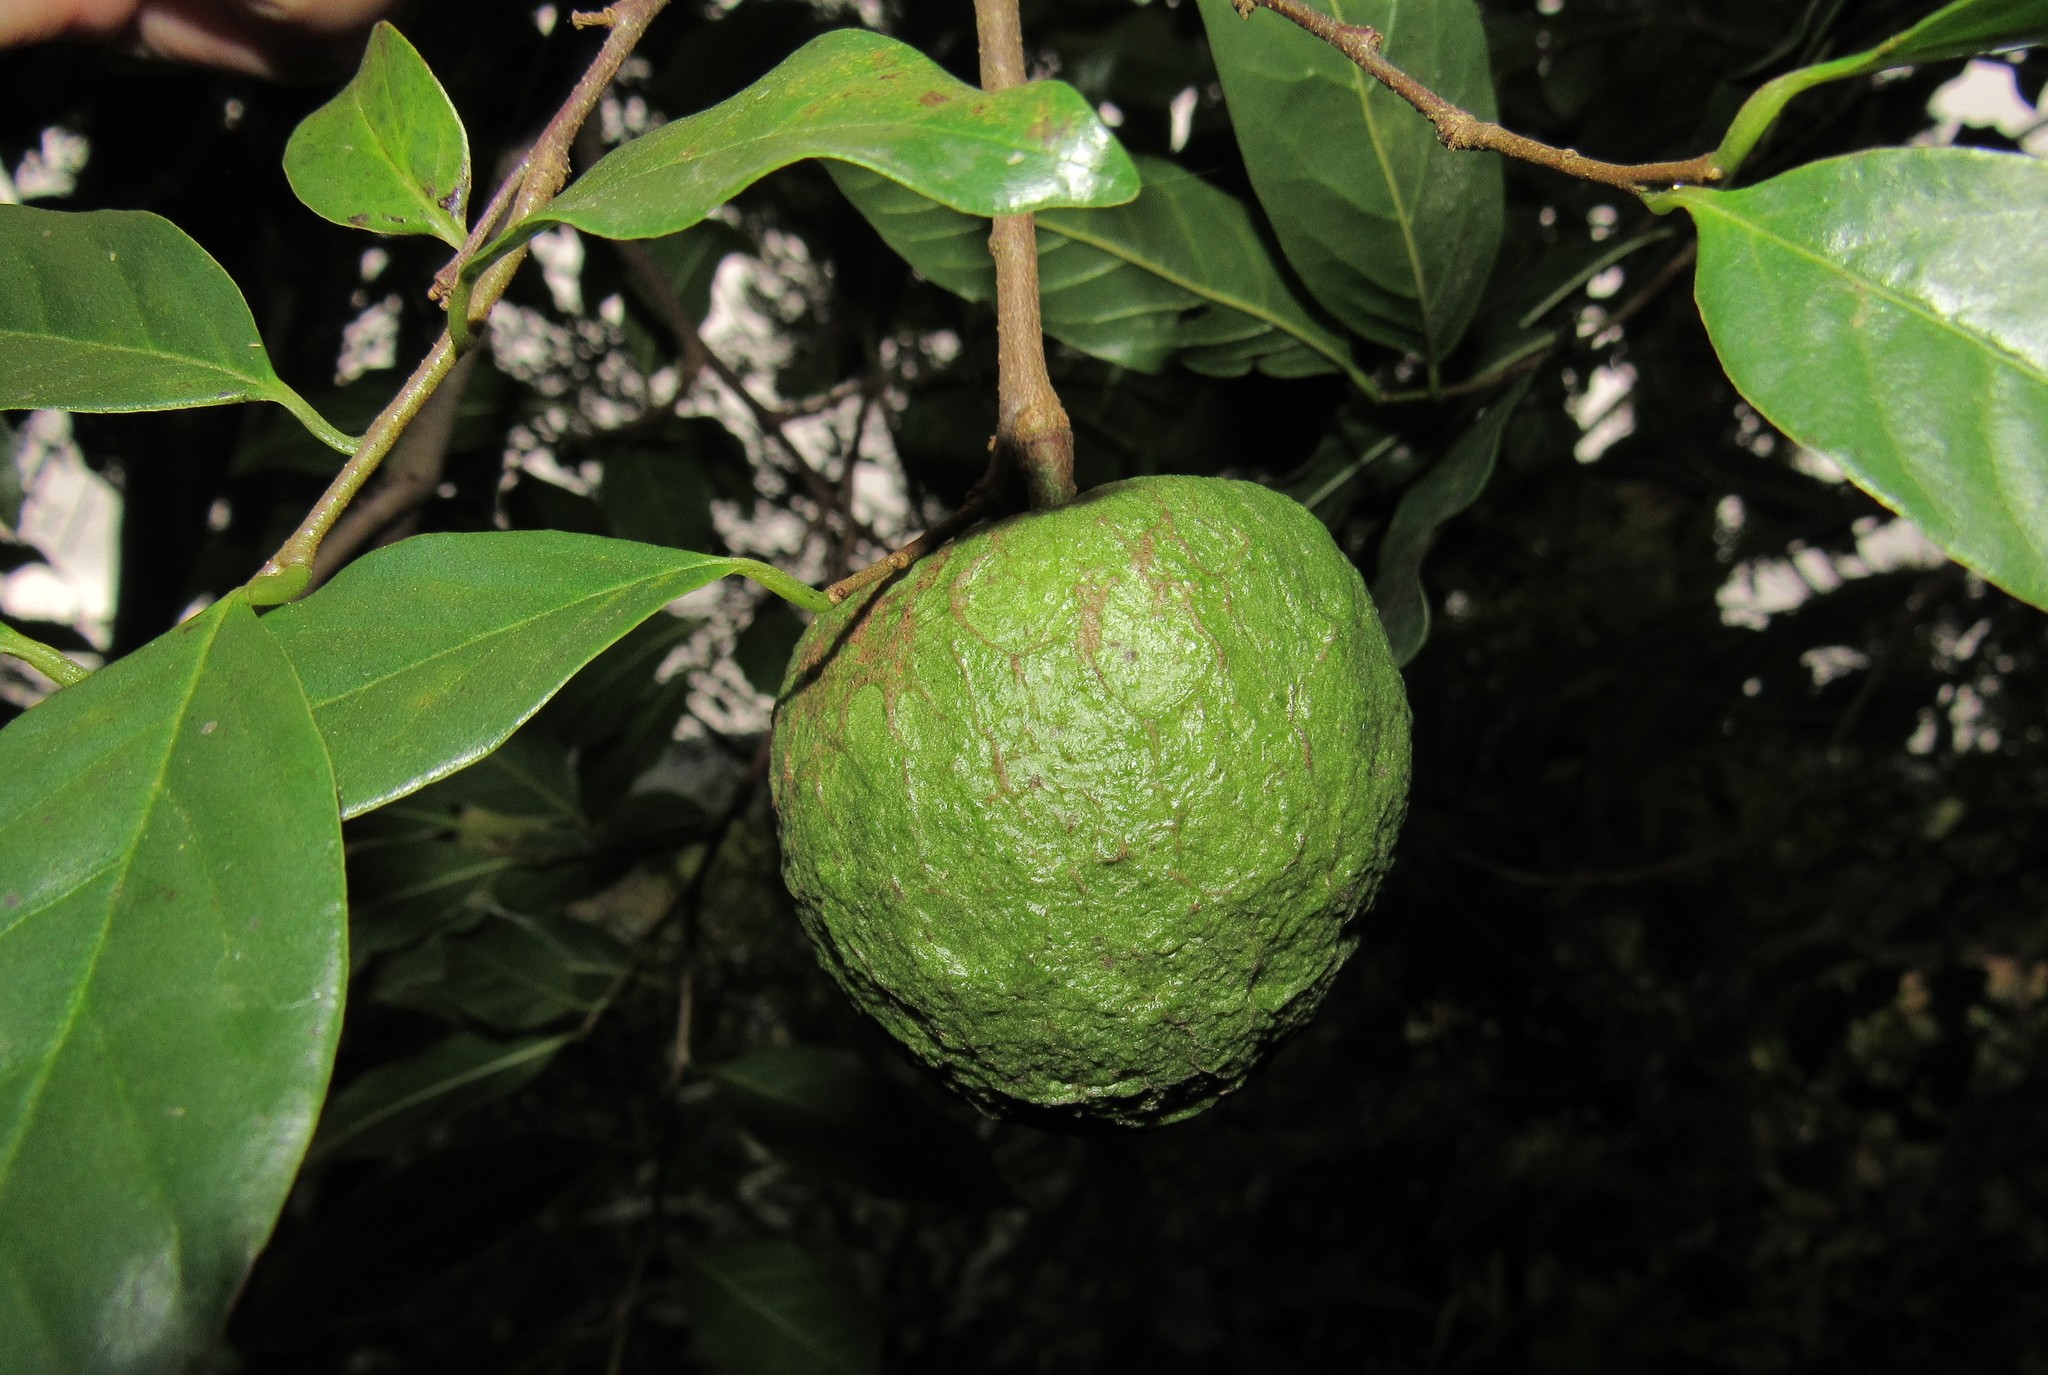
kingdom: Plantae
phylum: Tracheophyta
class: Magnoliopsida
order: Magnoliales
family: Annonaceae
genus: Annona
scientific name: Annona rugulosa
